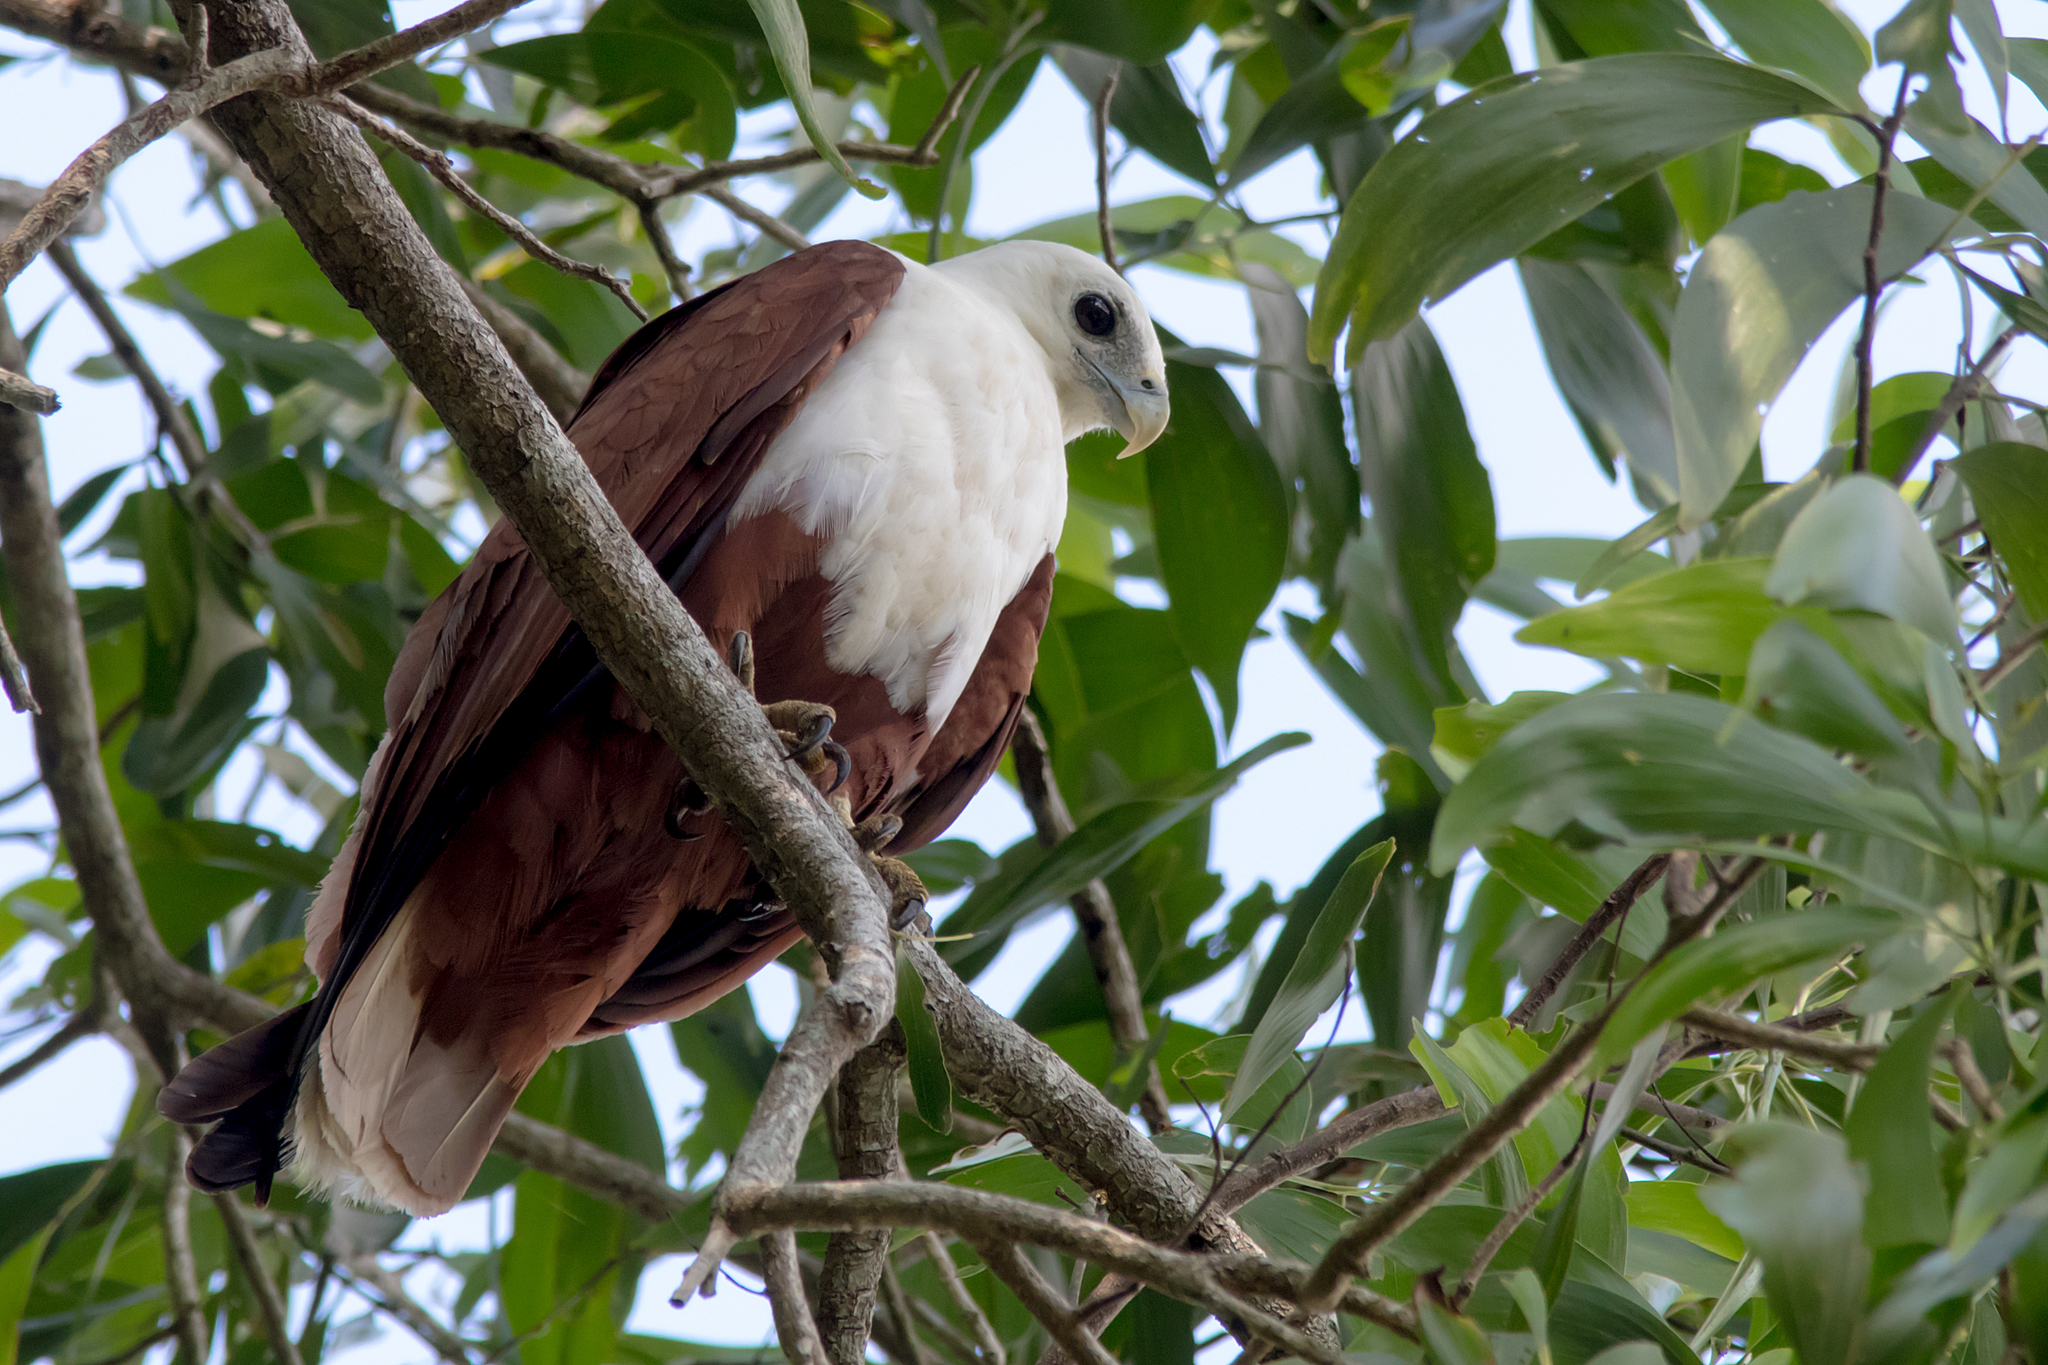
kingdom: Animalia
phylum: Chordata
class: Aves
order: Accipitriformes
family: Accipitridae
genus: Haliastur
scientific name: Haliastur indus
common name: Brahminy kite
